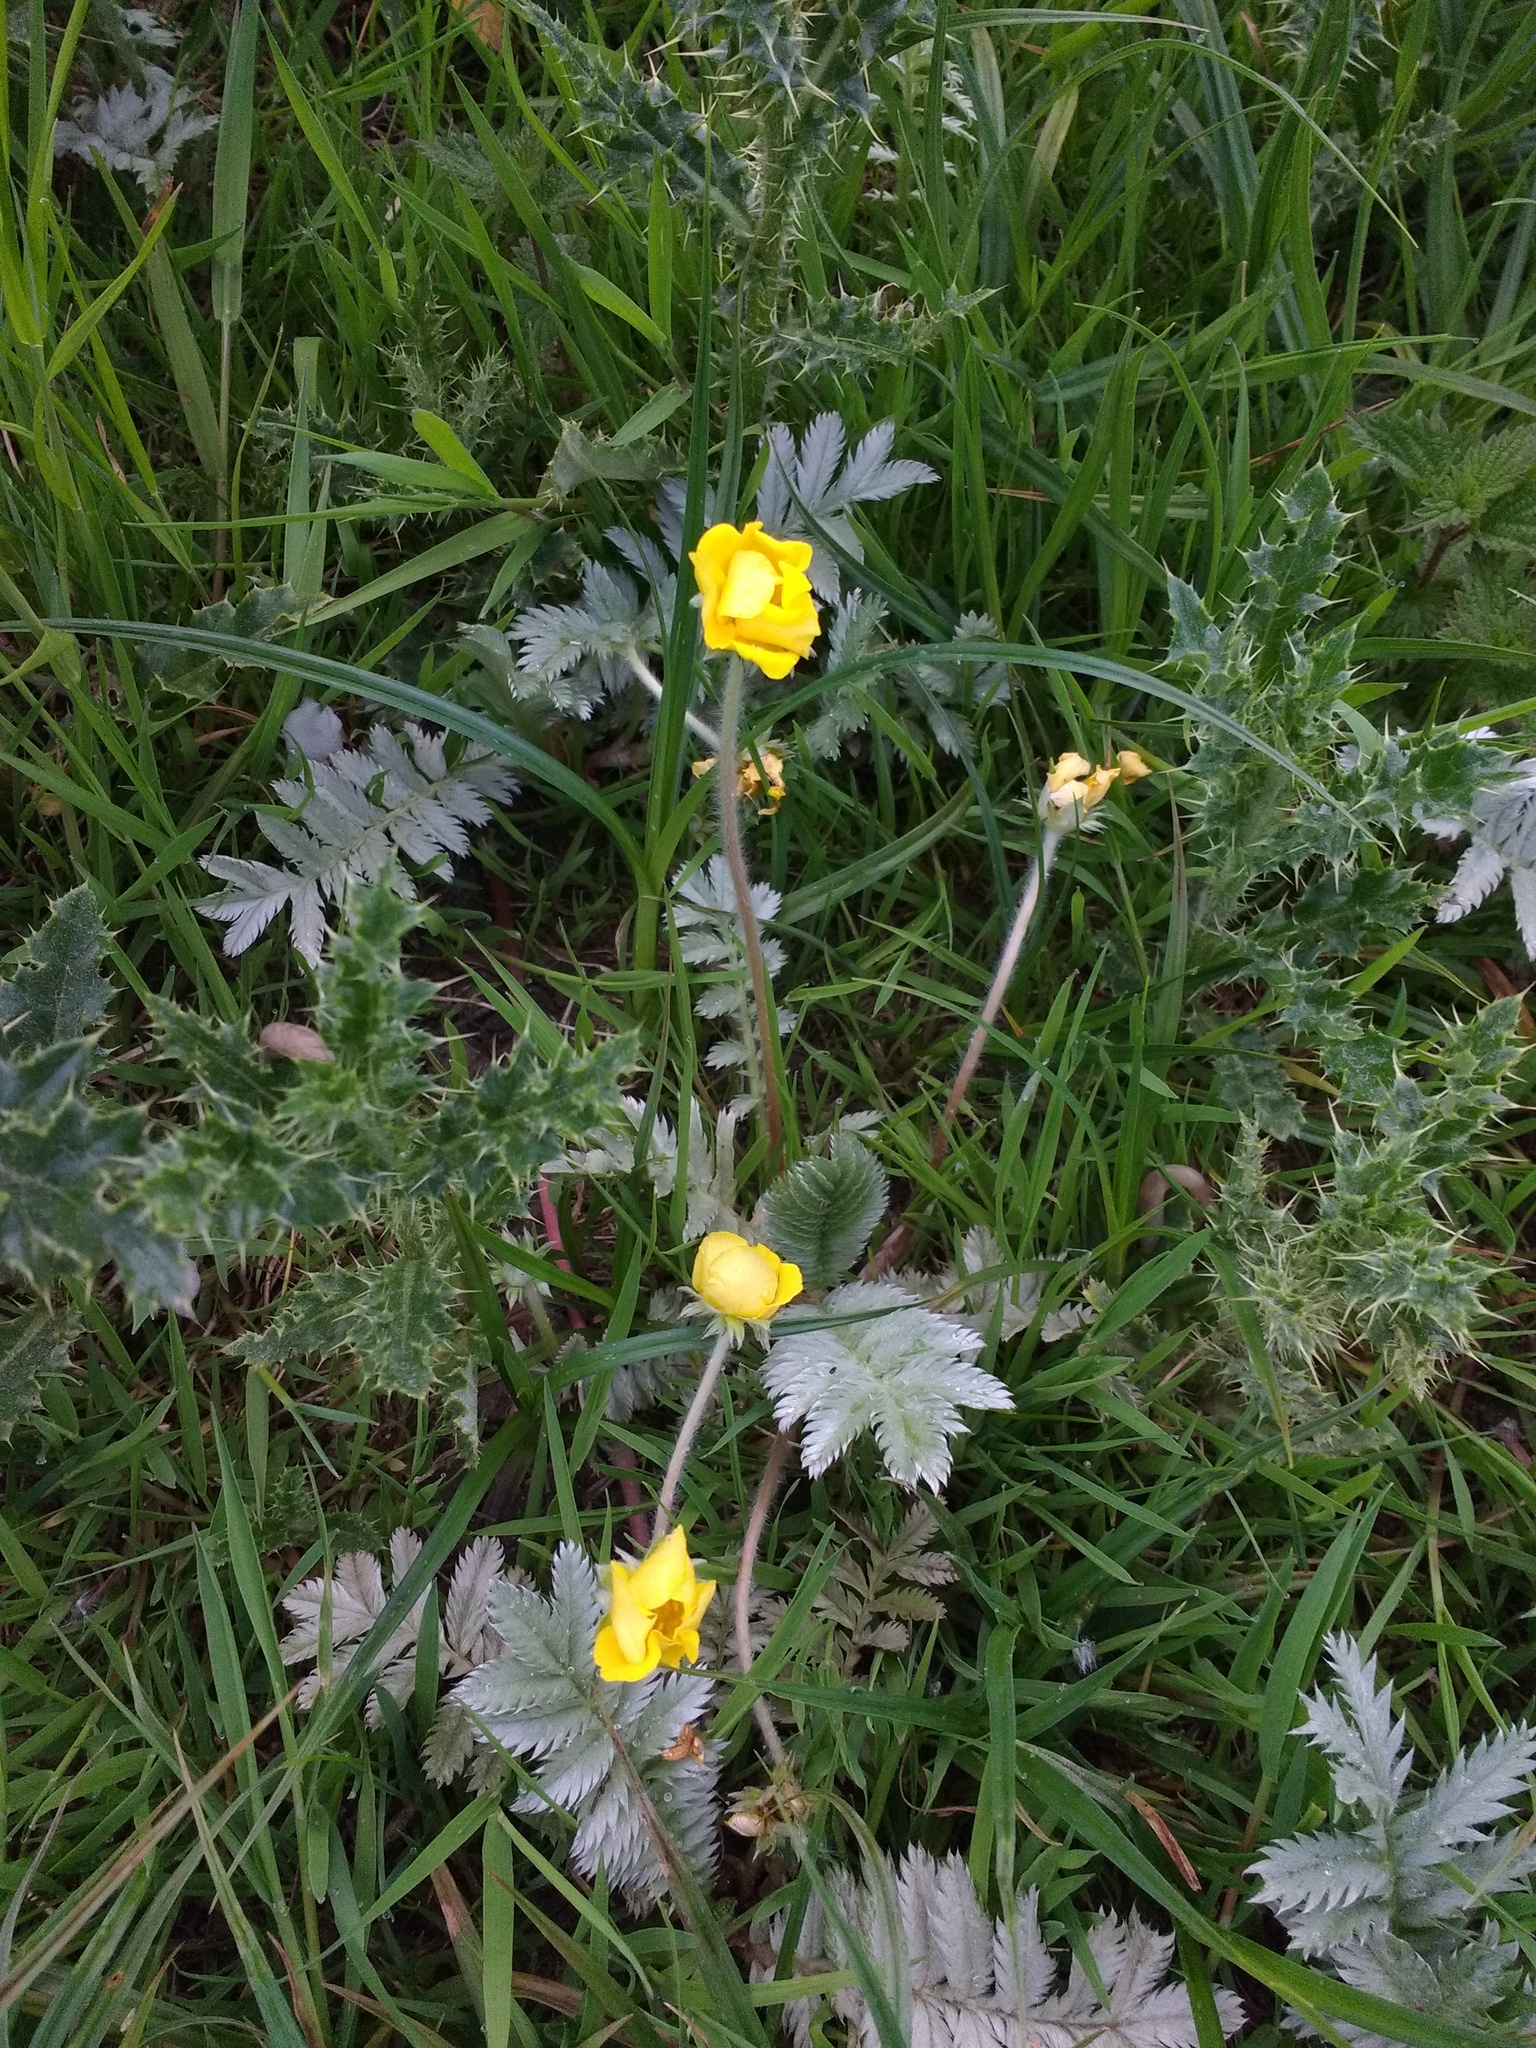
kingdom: Plantae
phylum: Tracheophyta
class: Magnoliopsida
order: Rosales
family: Rosaceae
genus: Argentina
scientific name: Argentina anserina
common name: Common silverweed
